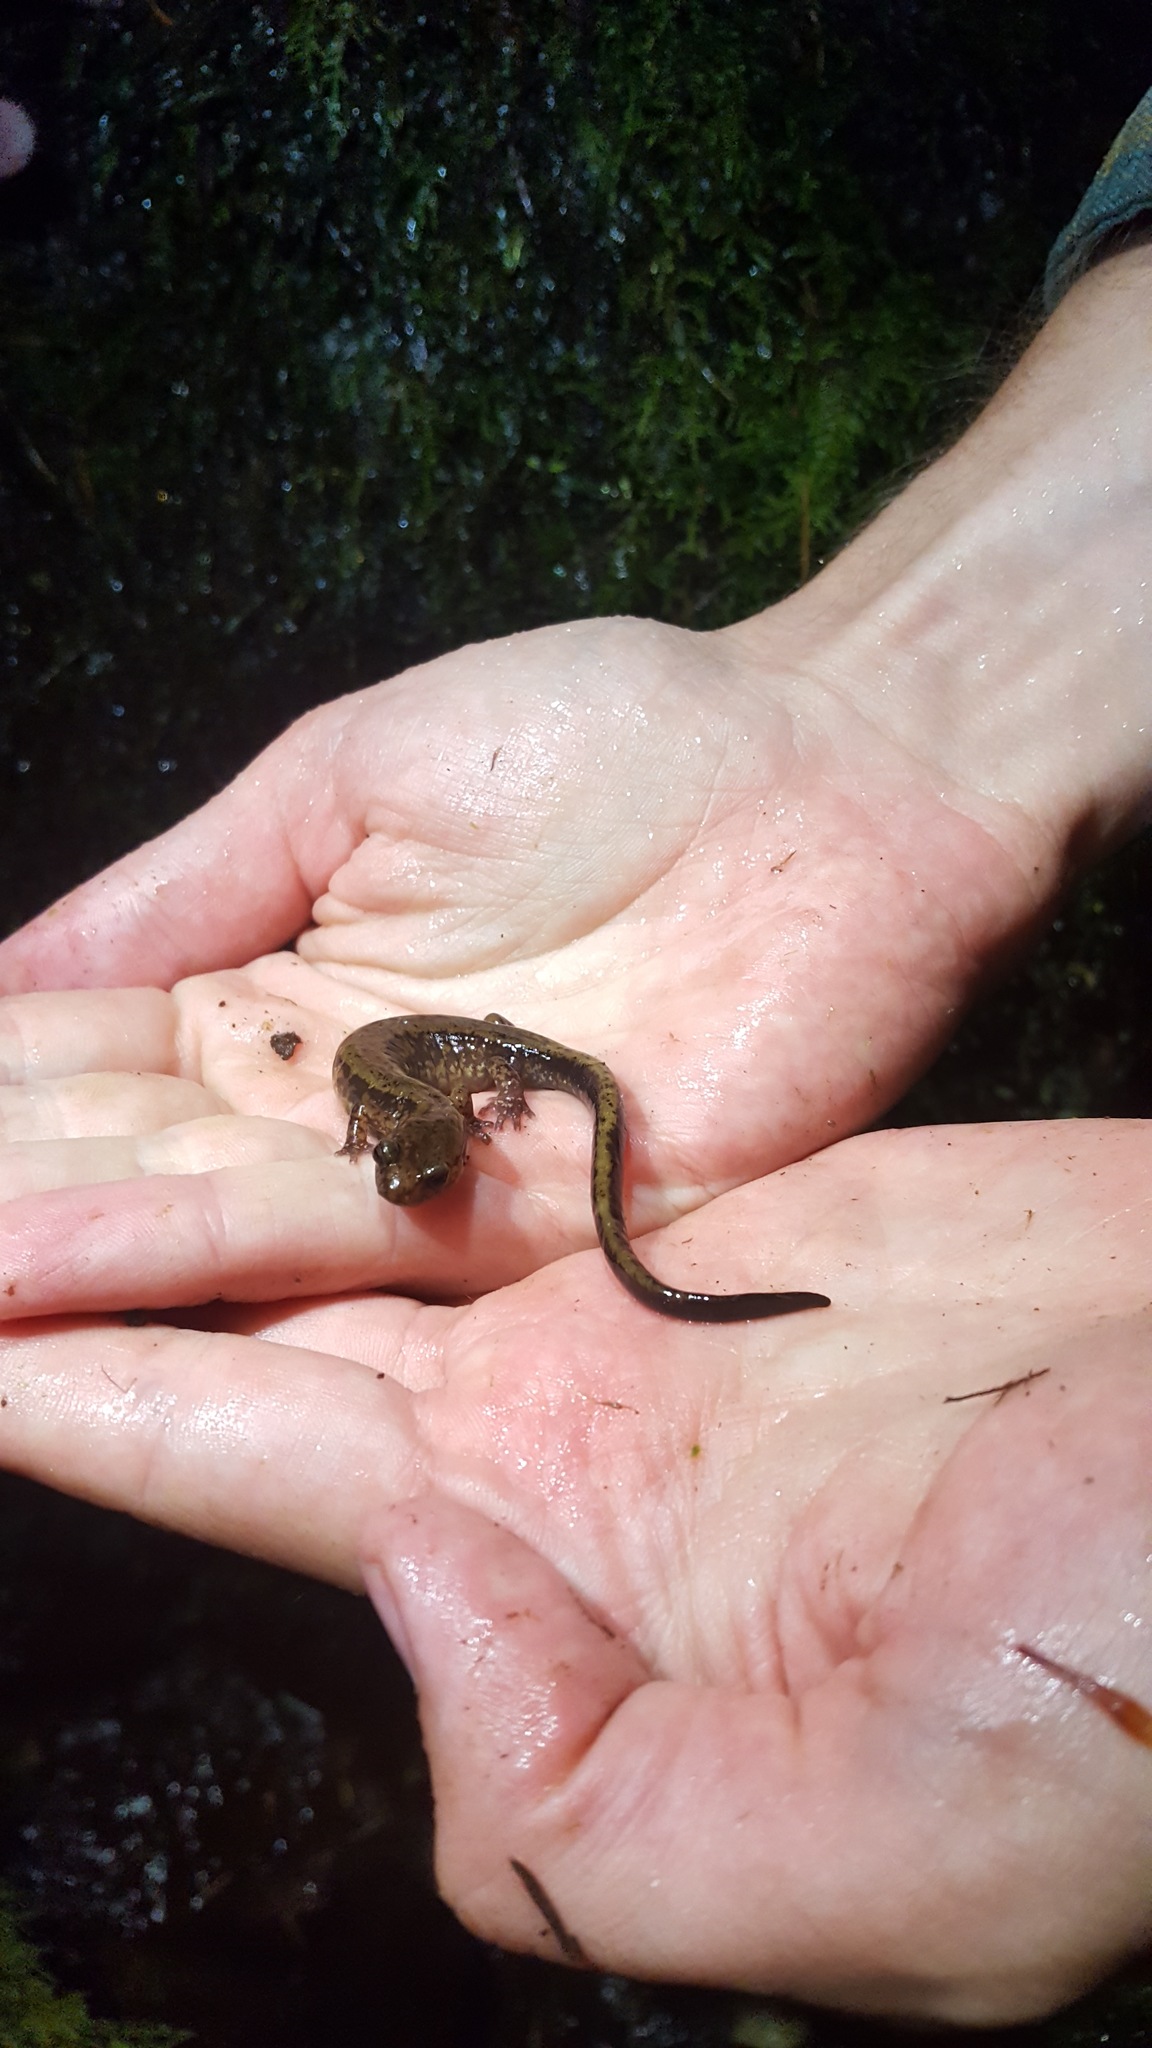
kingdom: Animalia
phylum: Chordata
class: Amphibia
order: Caudata
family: Plethodontidae
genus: Plethodon
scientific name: Plethodon dunni
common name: Dunn's salamander
